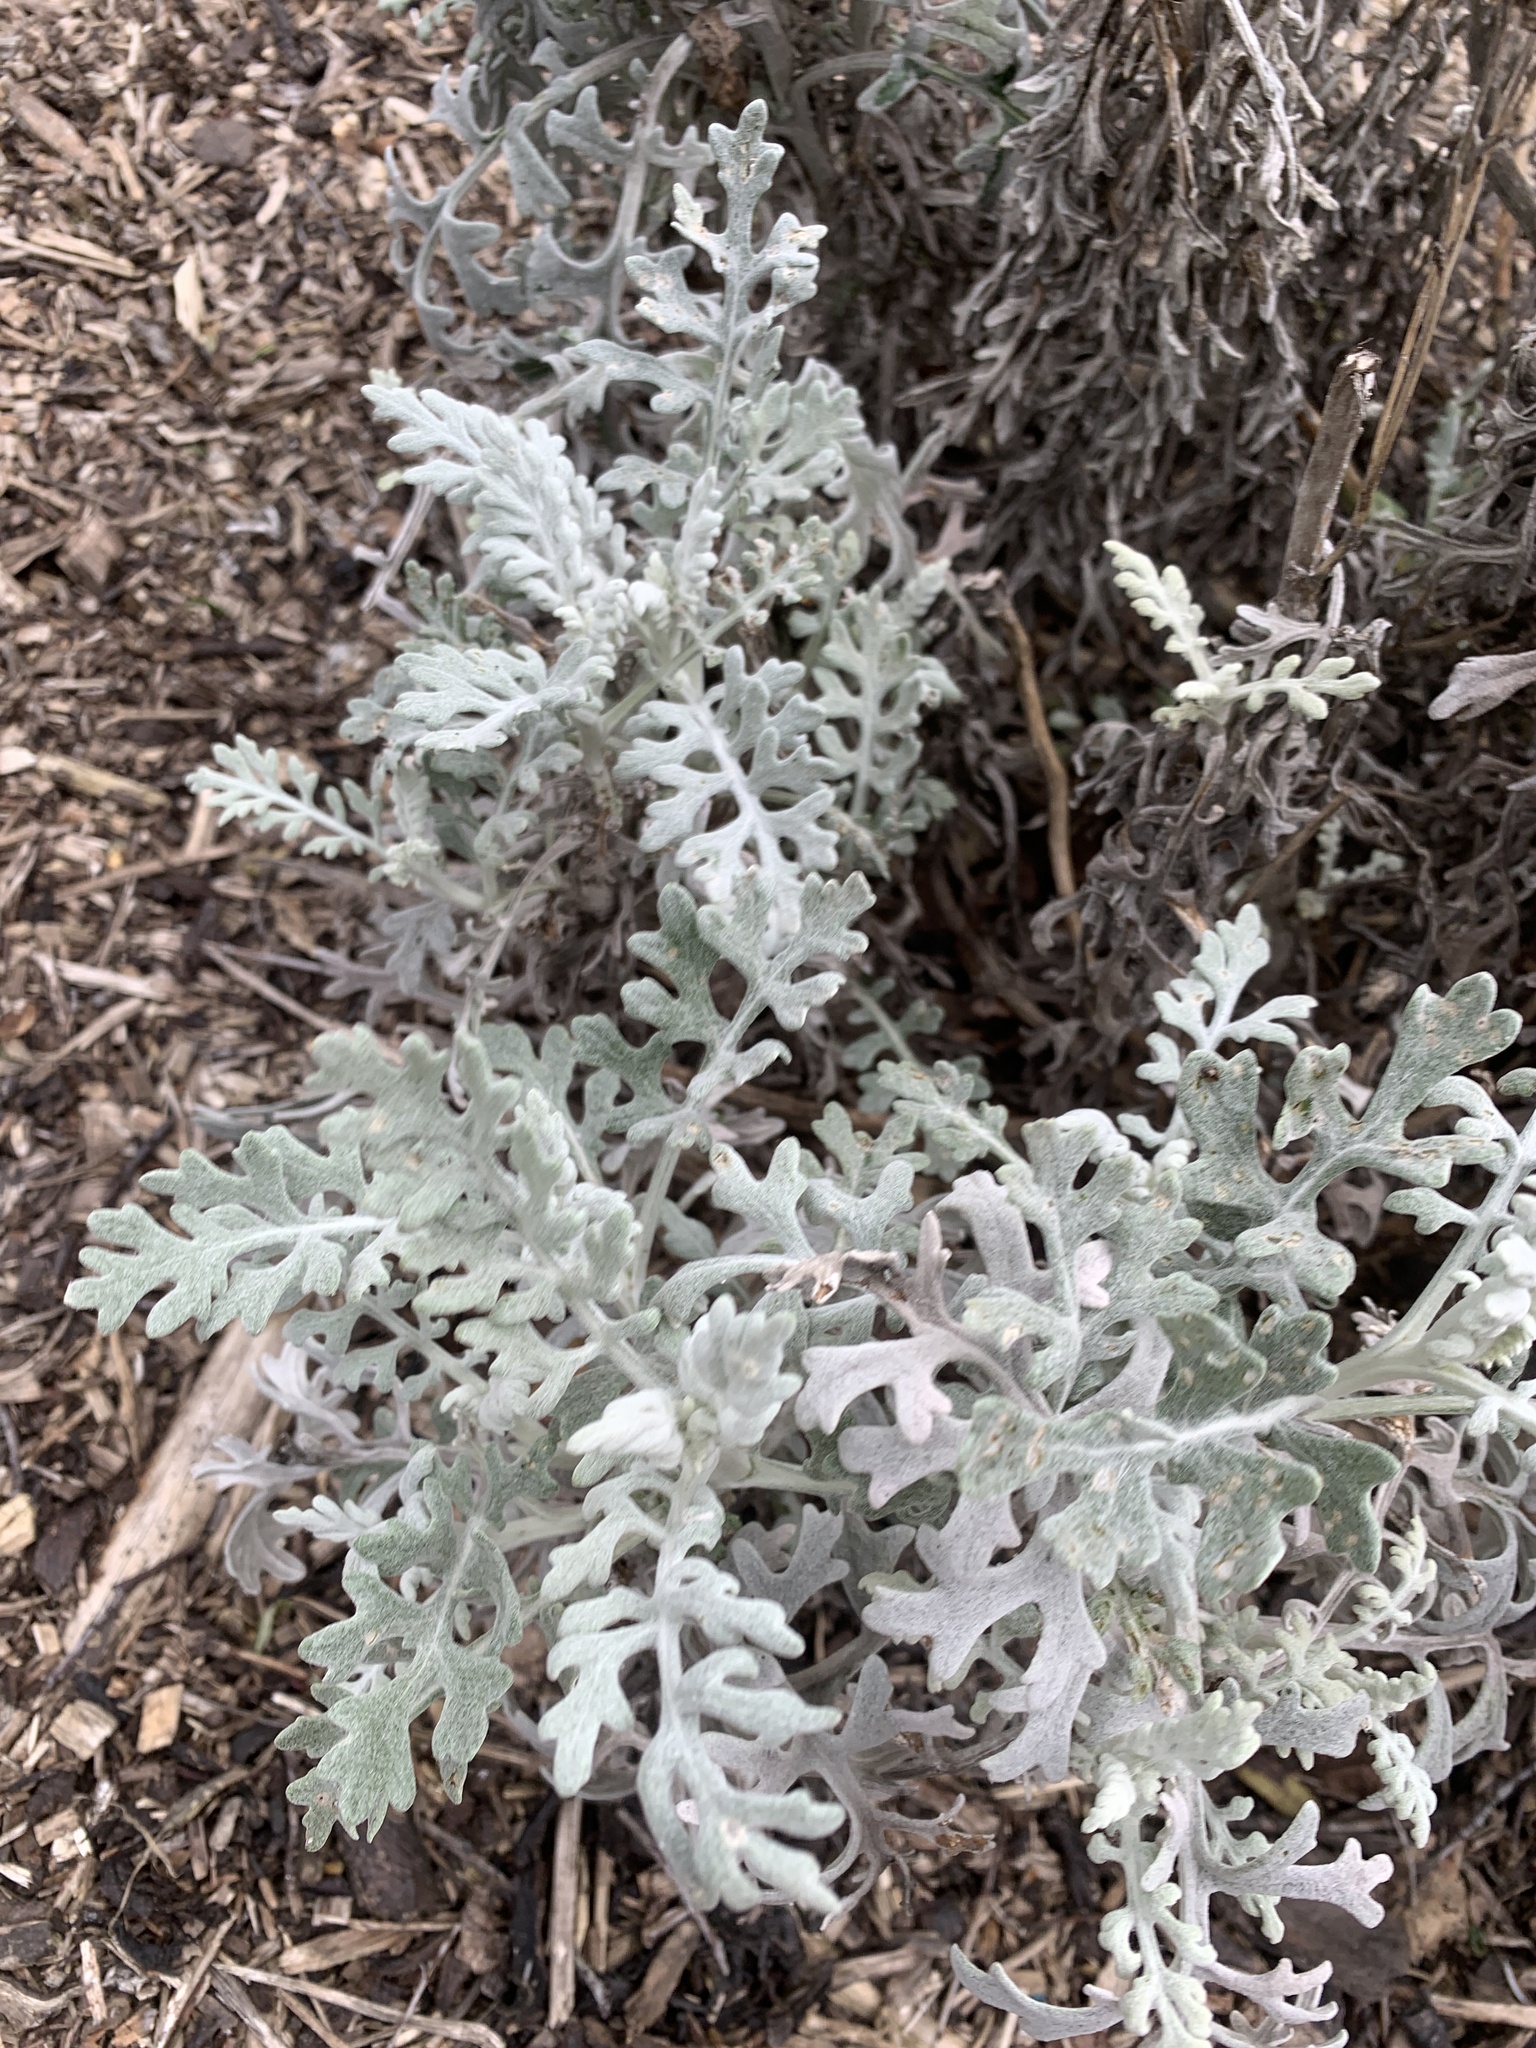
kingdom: Plantae
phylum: Tracheophyta
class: Magnoliopsida
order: Asterales
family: Asteraceae
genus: Jacobaea
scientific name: Jacobaea maritima
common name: Silver ragwort
